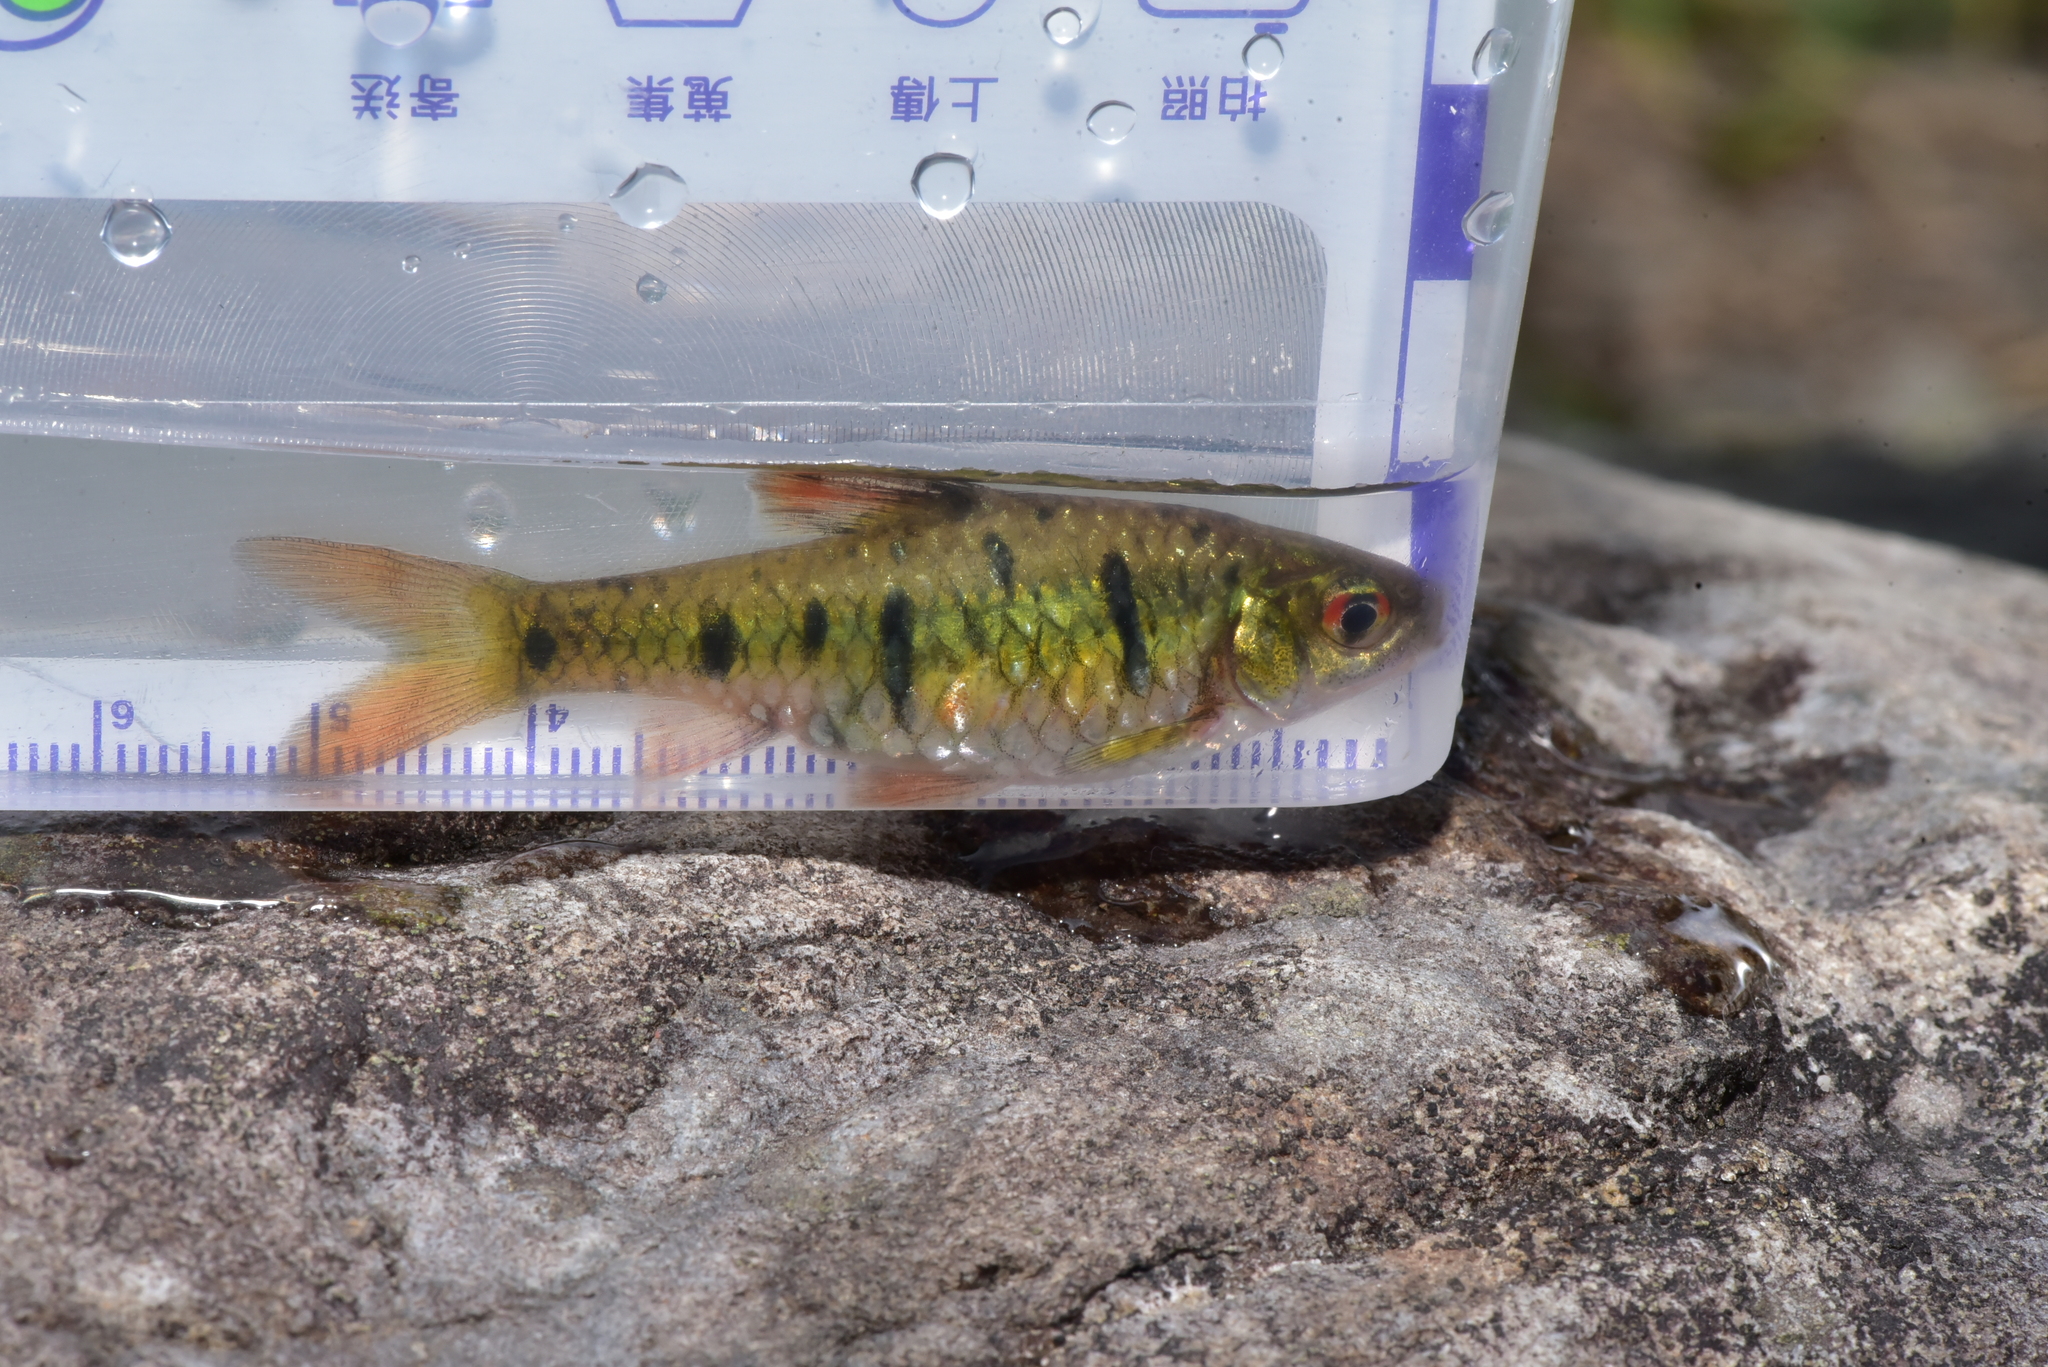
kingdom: Animalia
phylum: Chordata
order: Cypriniformes
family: Cyprinidae
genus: Barbodes
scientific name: Barbodes semifasciolatus
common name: Gold barb
